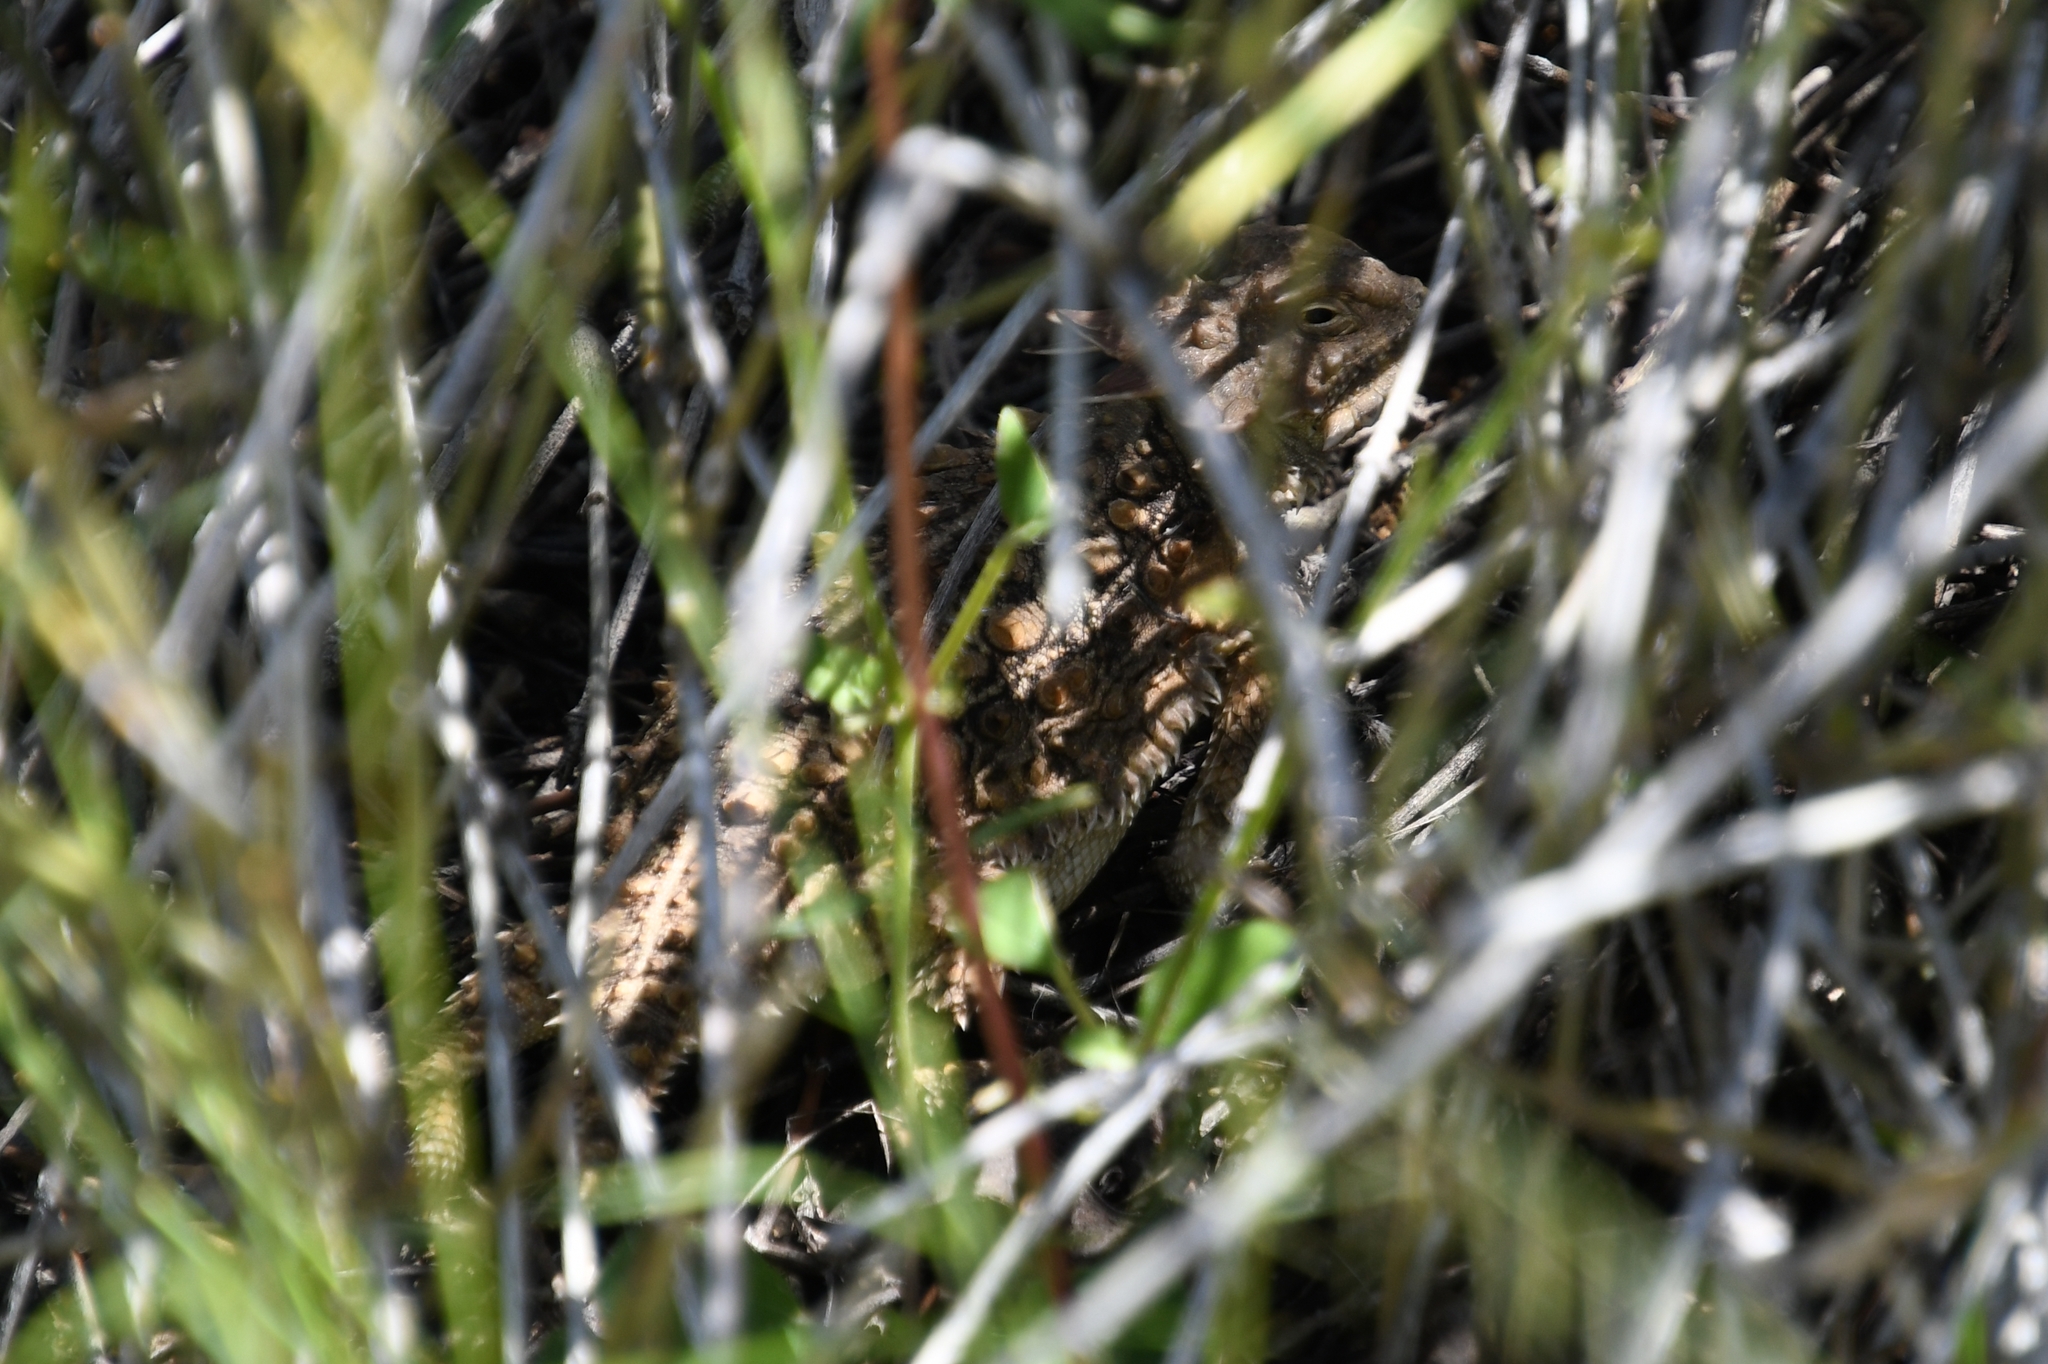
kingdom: Animalia
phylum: Chordata
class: Squamata
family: Phrynosomatidae
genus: Phrynosoma
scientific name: Phrynosoma solare
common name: Regal horned lizard
